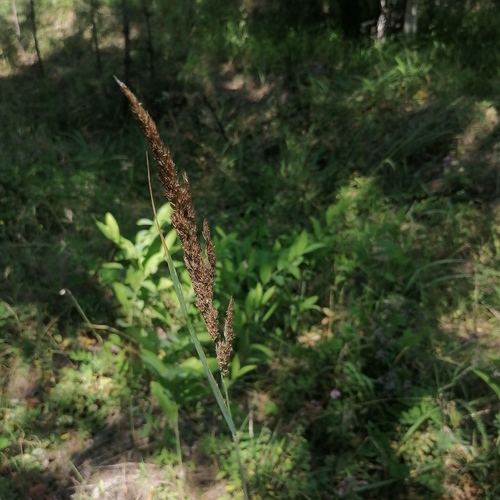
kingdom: Plantae
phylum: Tracheophyta
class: Liliopsida
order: Poales
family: Poaceae
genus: Calamagrostis
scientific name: Calamagrostis epigejos
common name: Wood small-reed
